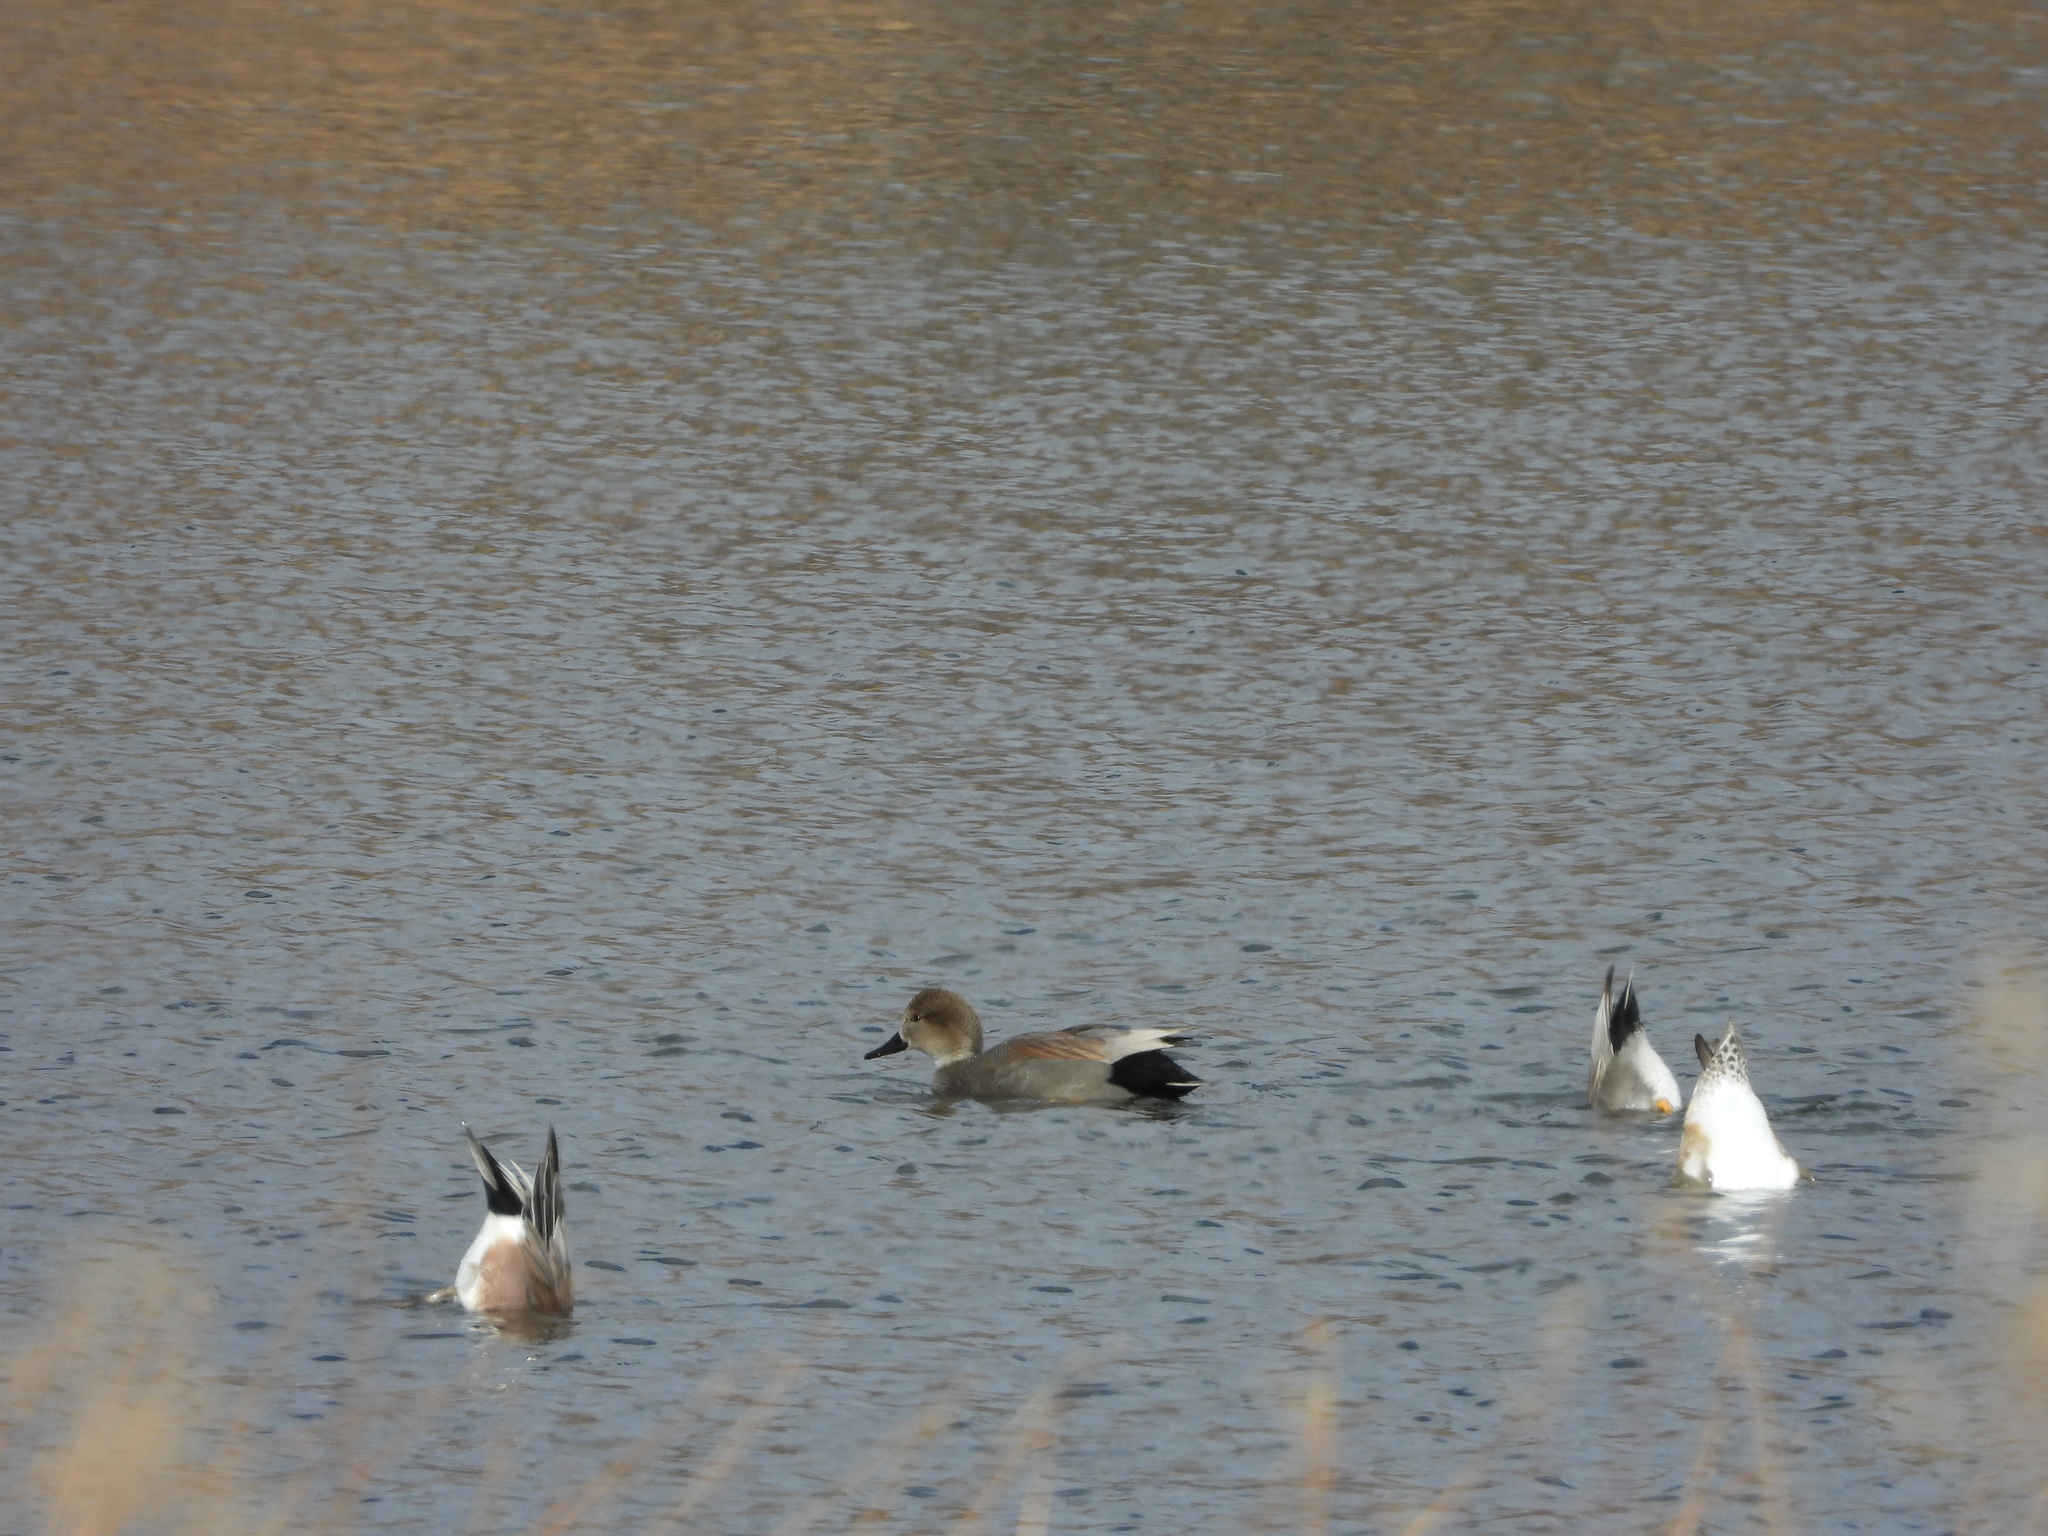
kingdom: Animalia
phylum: Chordata
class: Aves
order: Anseriformes
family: Anatidae
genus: Mareca
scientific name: Mareca strepera
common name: Gadwall
